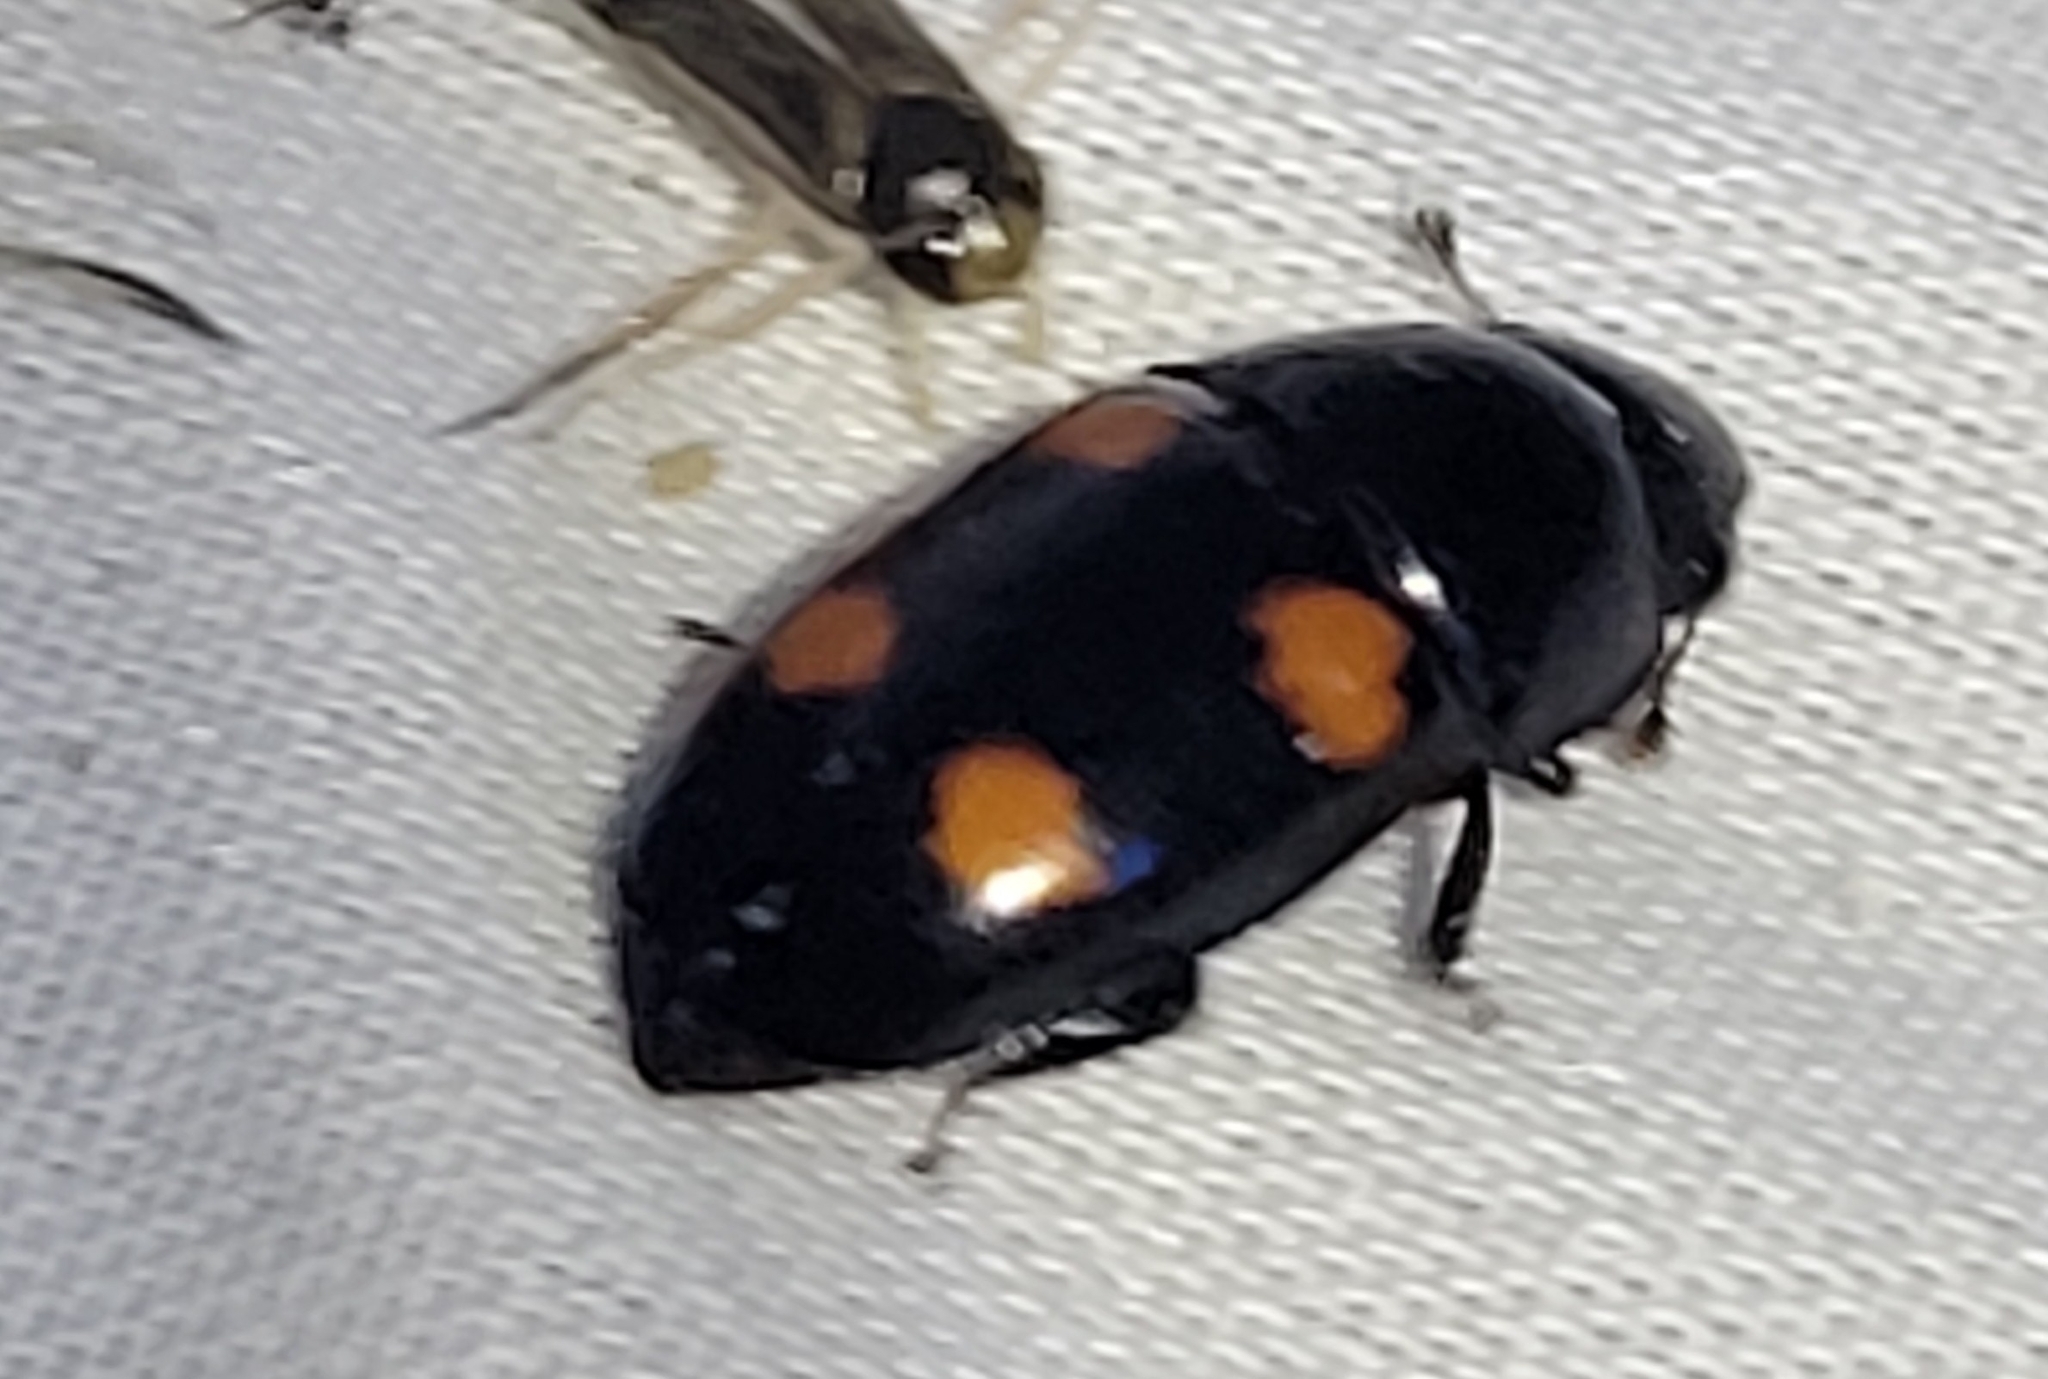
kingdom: Animalia
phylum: Arthropoda
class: Insecta
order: Coleoptera
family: Nitidulidae
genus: Glischrochilus
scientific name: Glischrochilus obtusus
